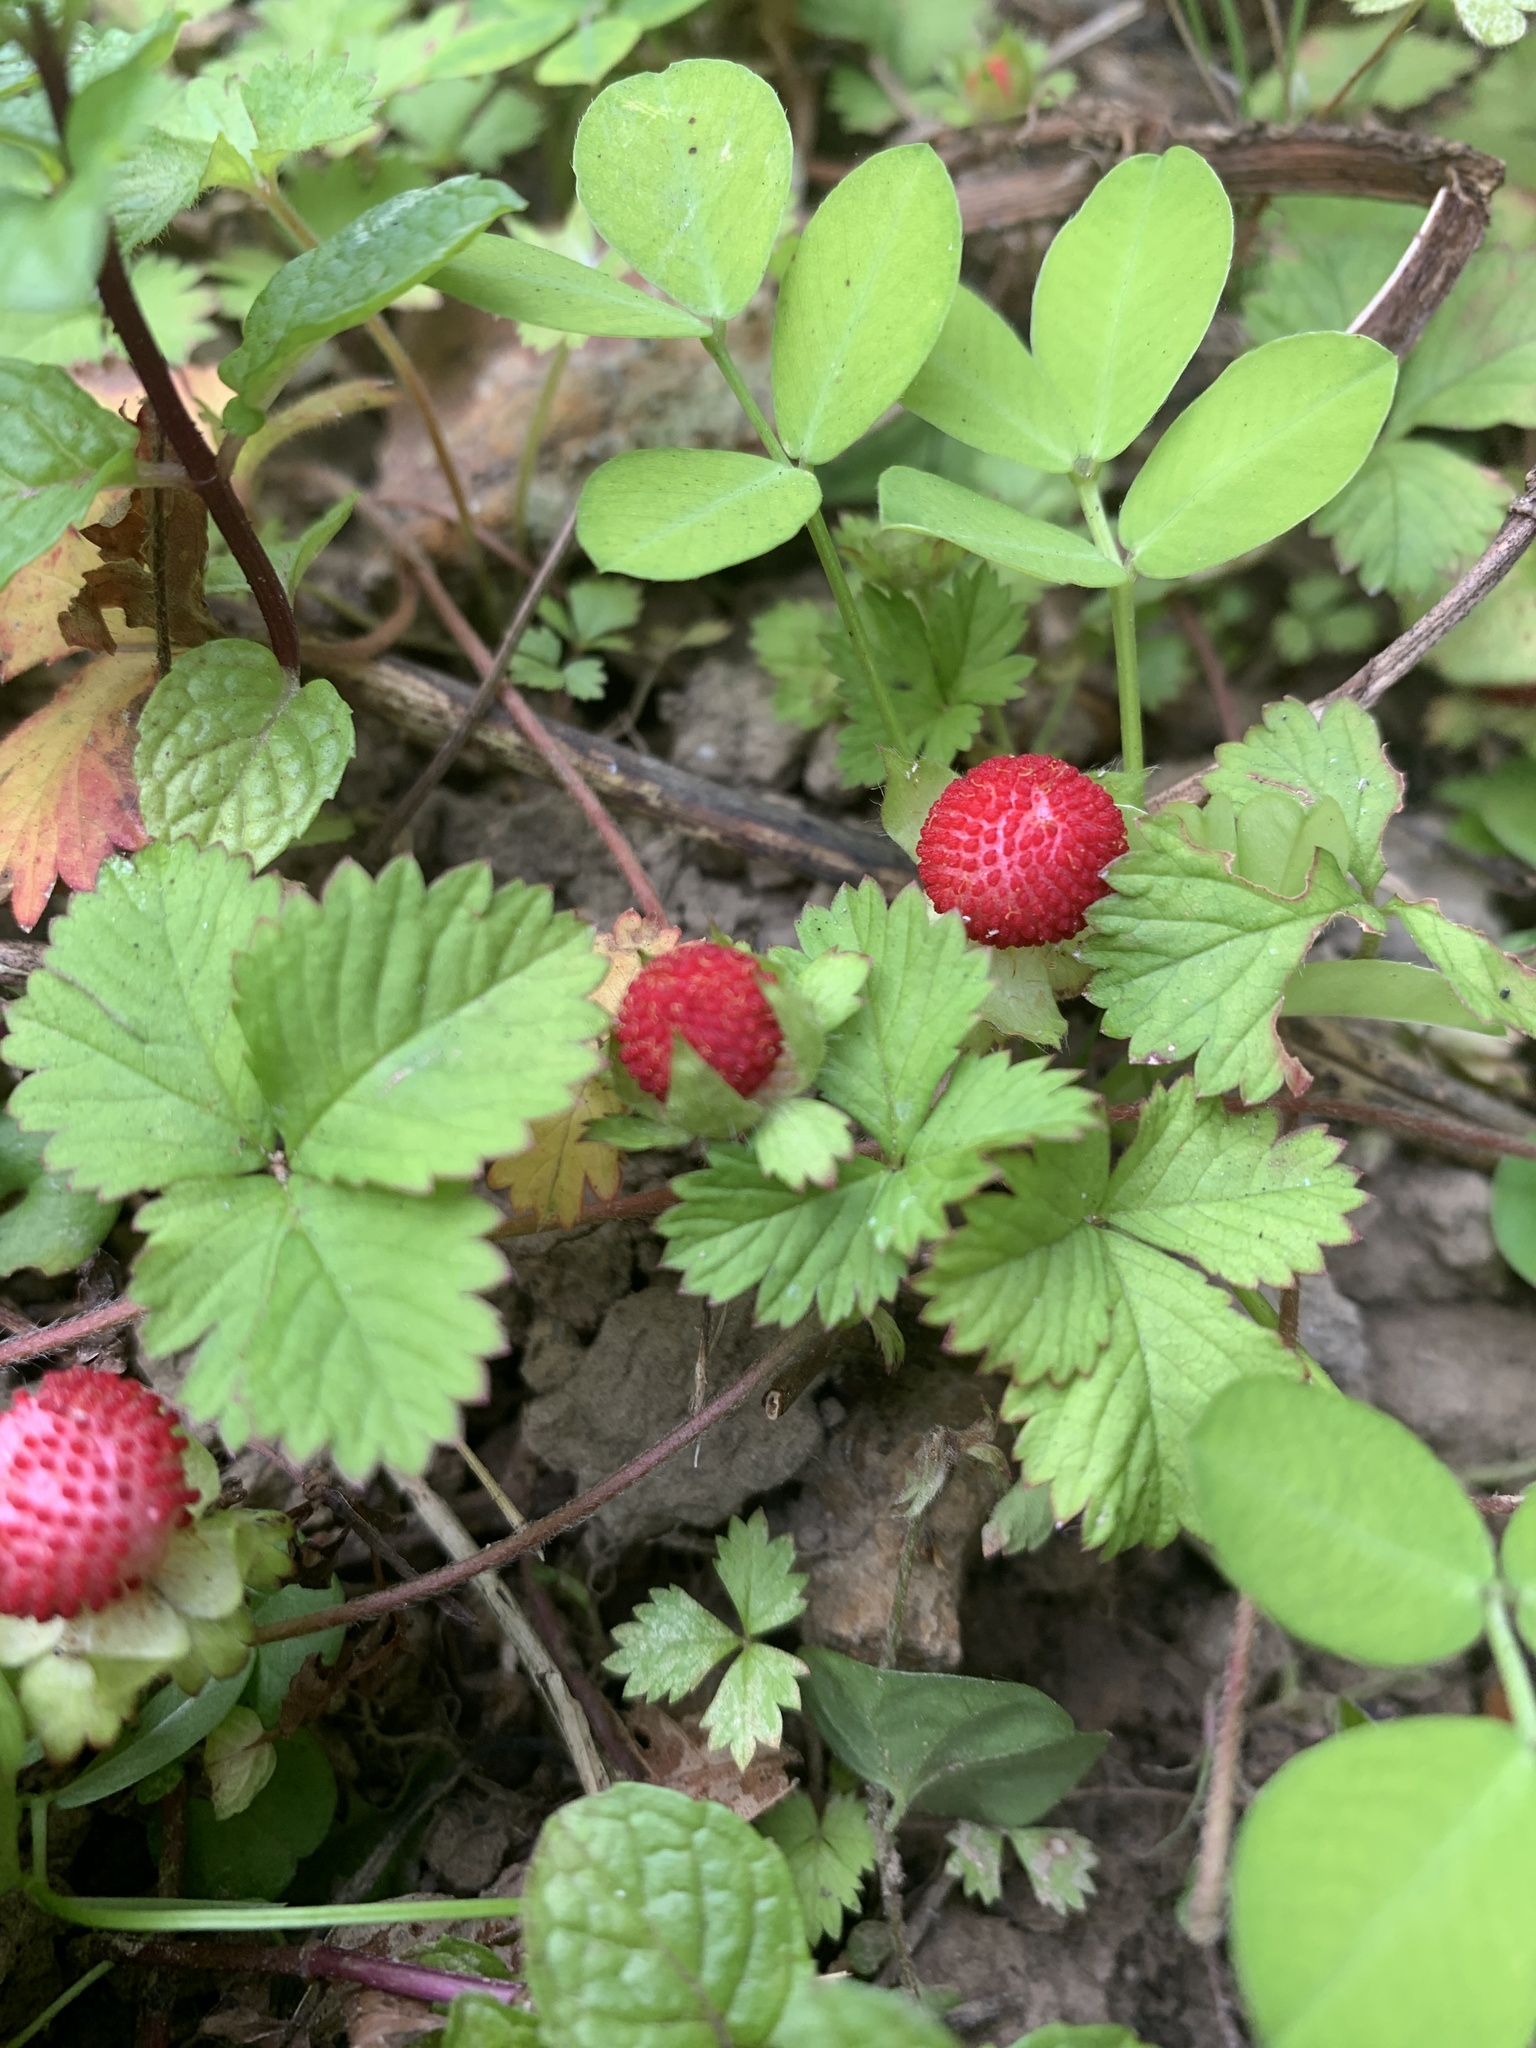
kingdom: Plantae
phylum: Tracheophyta
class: Magnoliopsida
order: Rosales
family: Rosaceae
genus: Potentilla
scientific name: Potentilla wallichiana
